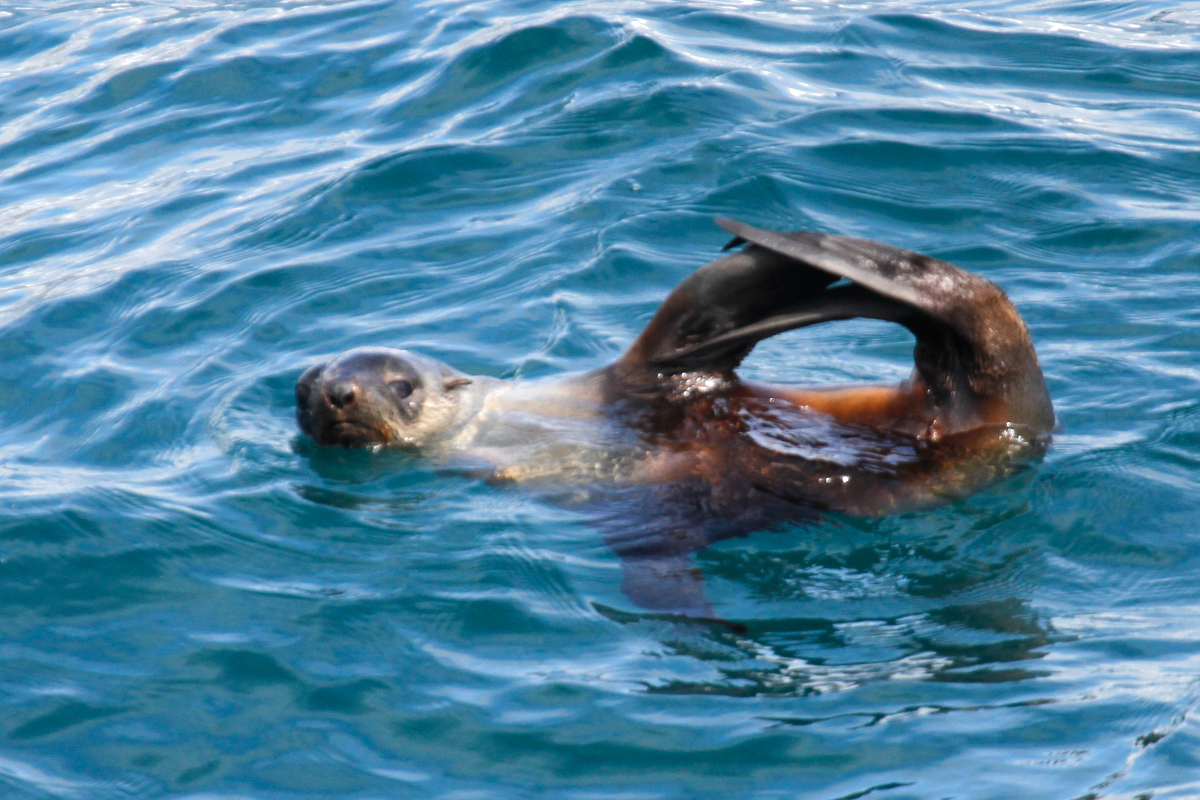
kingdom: Animalia
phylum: Chordata
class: Mammalia
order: Carnivora
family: Otariidae
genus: Arctocephalus
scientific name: Arctocephalus gazella
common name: Antarctic fur seal
